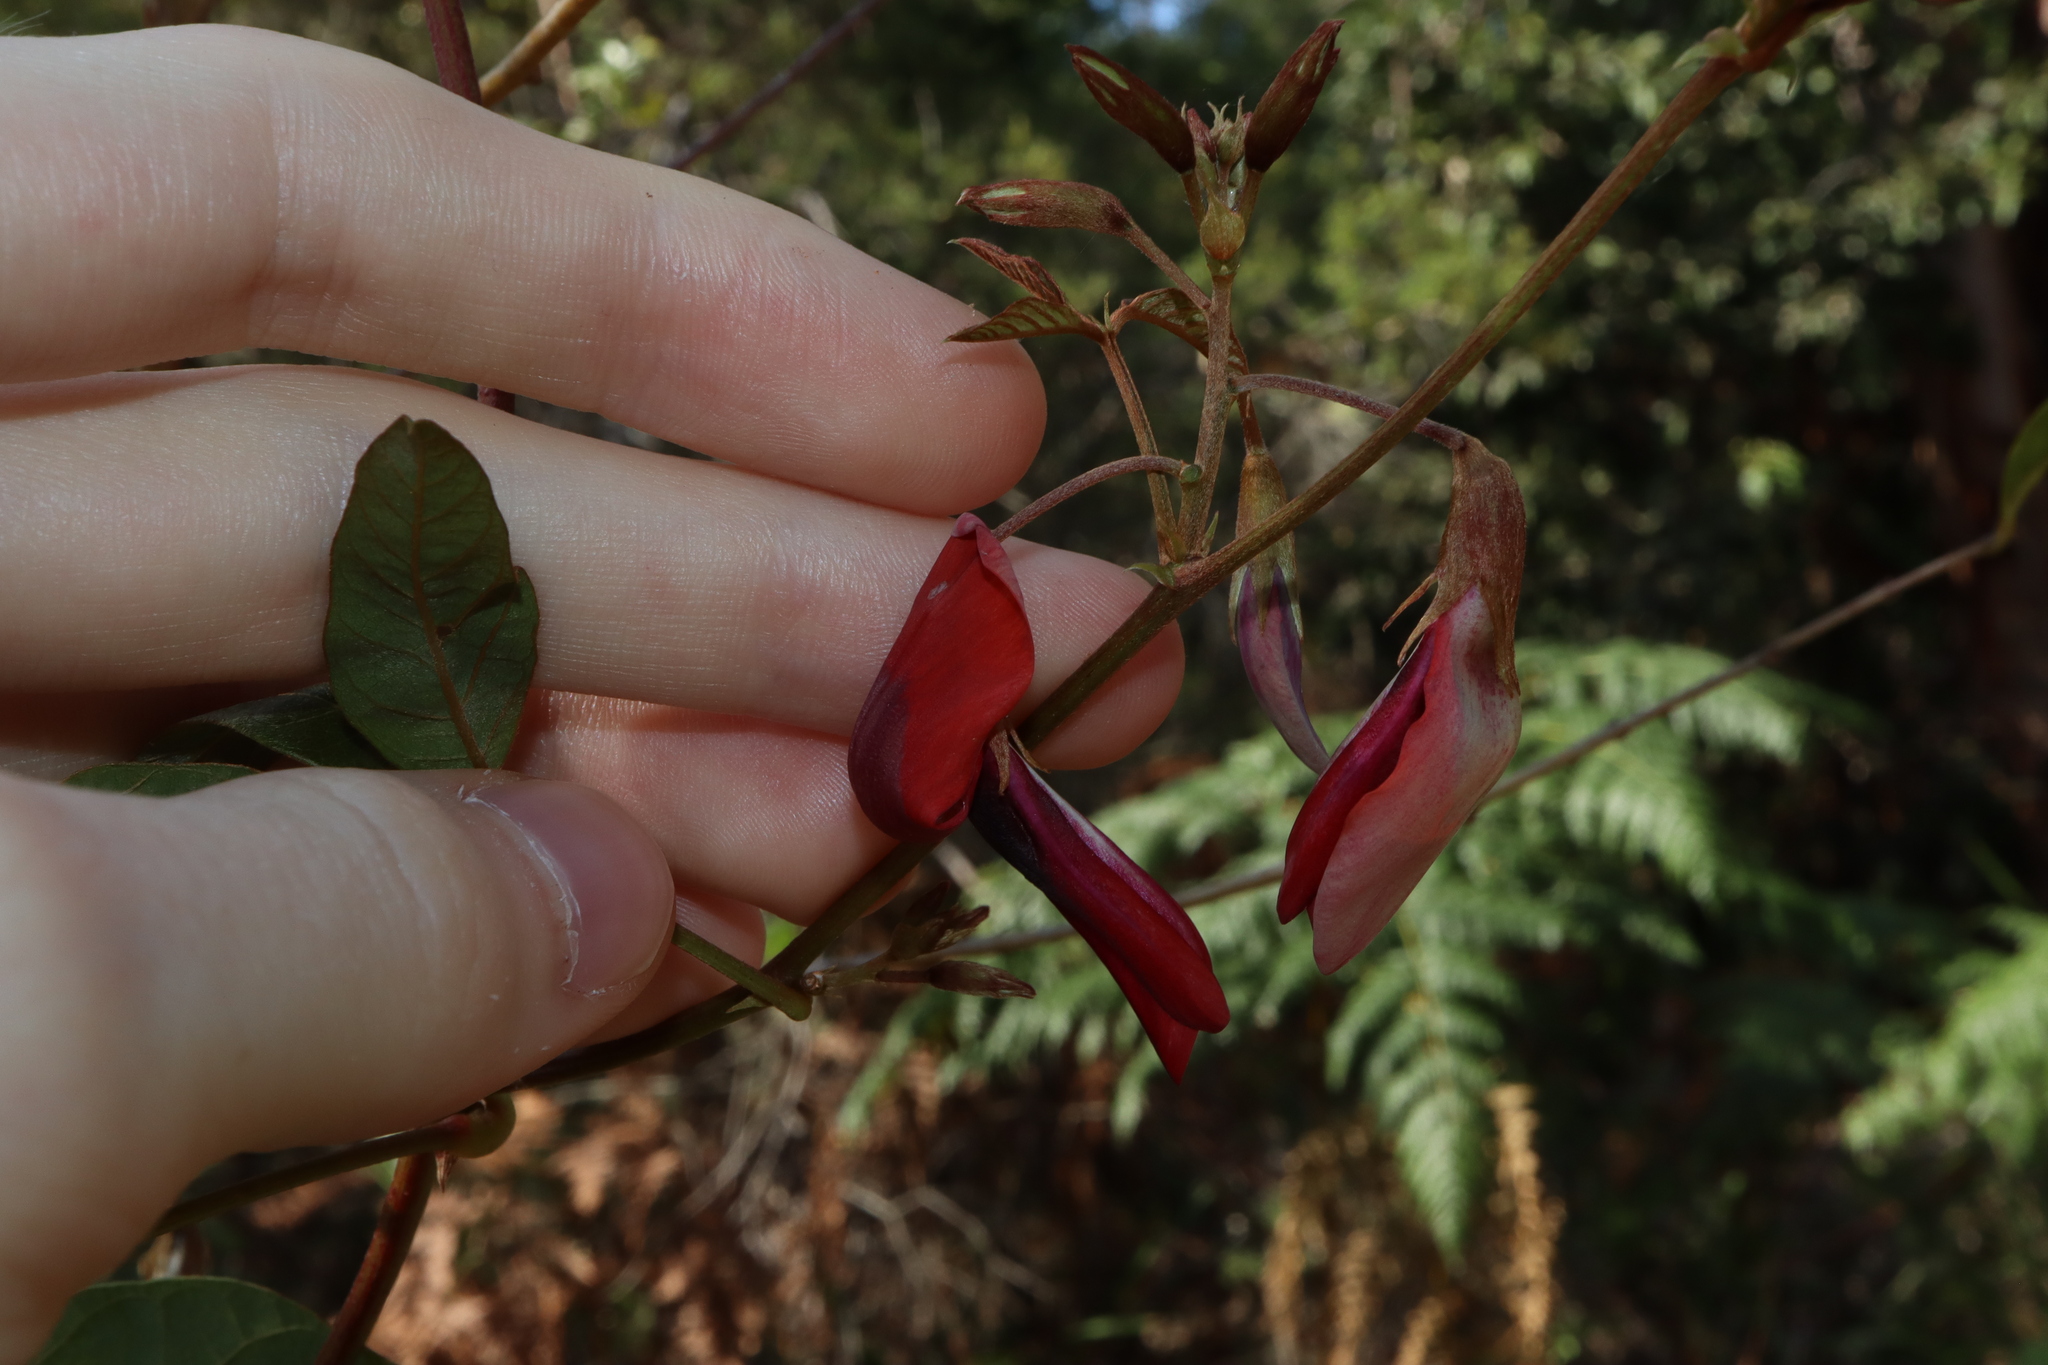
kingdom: Plantae
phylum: Tracheophyta
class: Magnoliopsida
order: Fabales
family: Fabaceae
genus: Kennedia
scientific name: Kennedia rubicunda
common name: Red kennedy-pea
